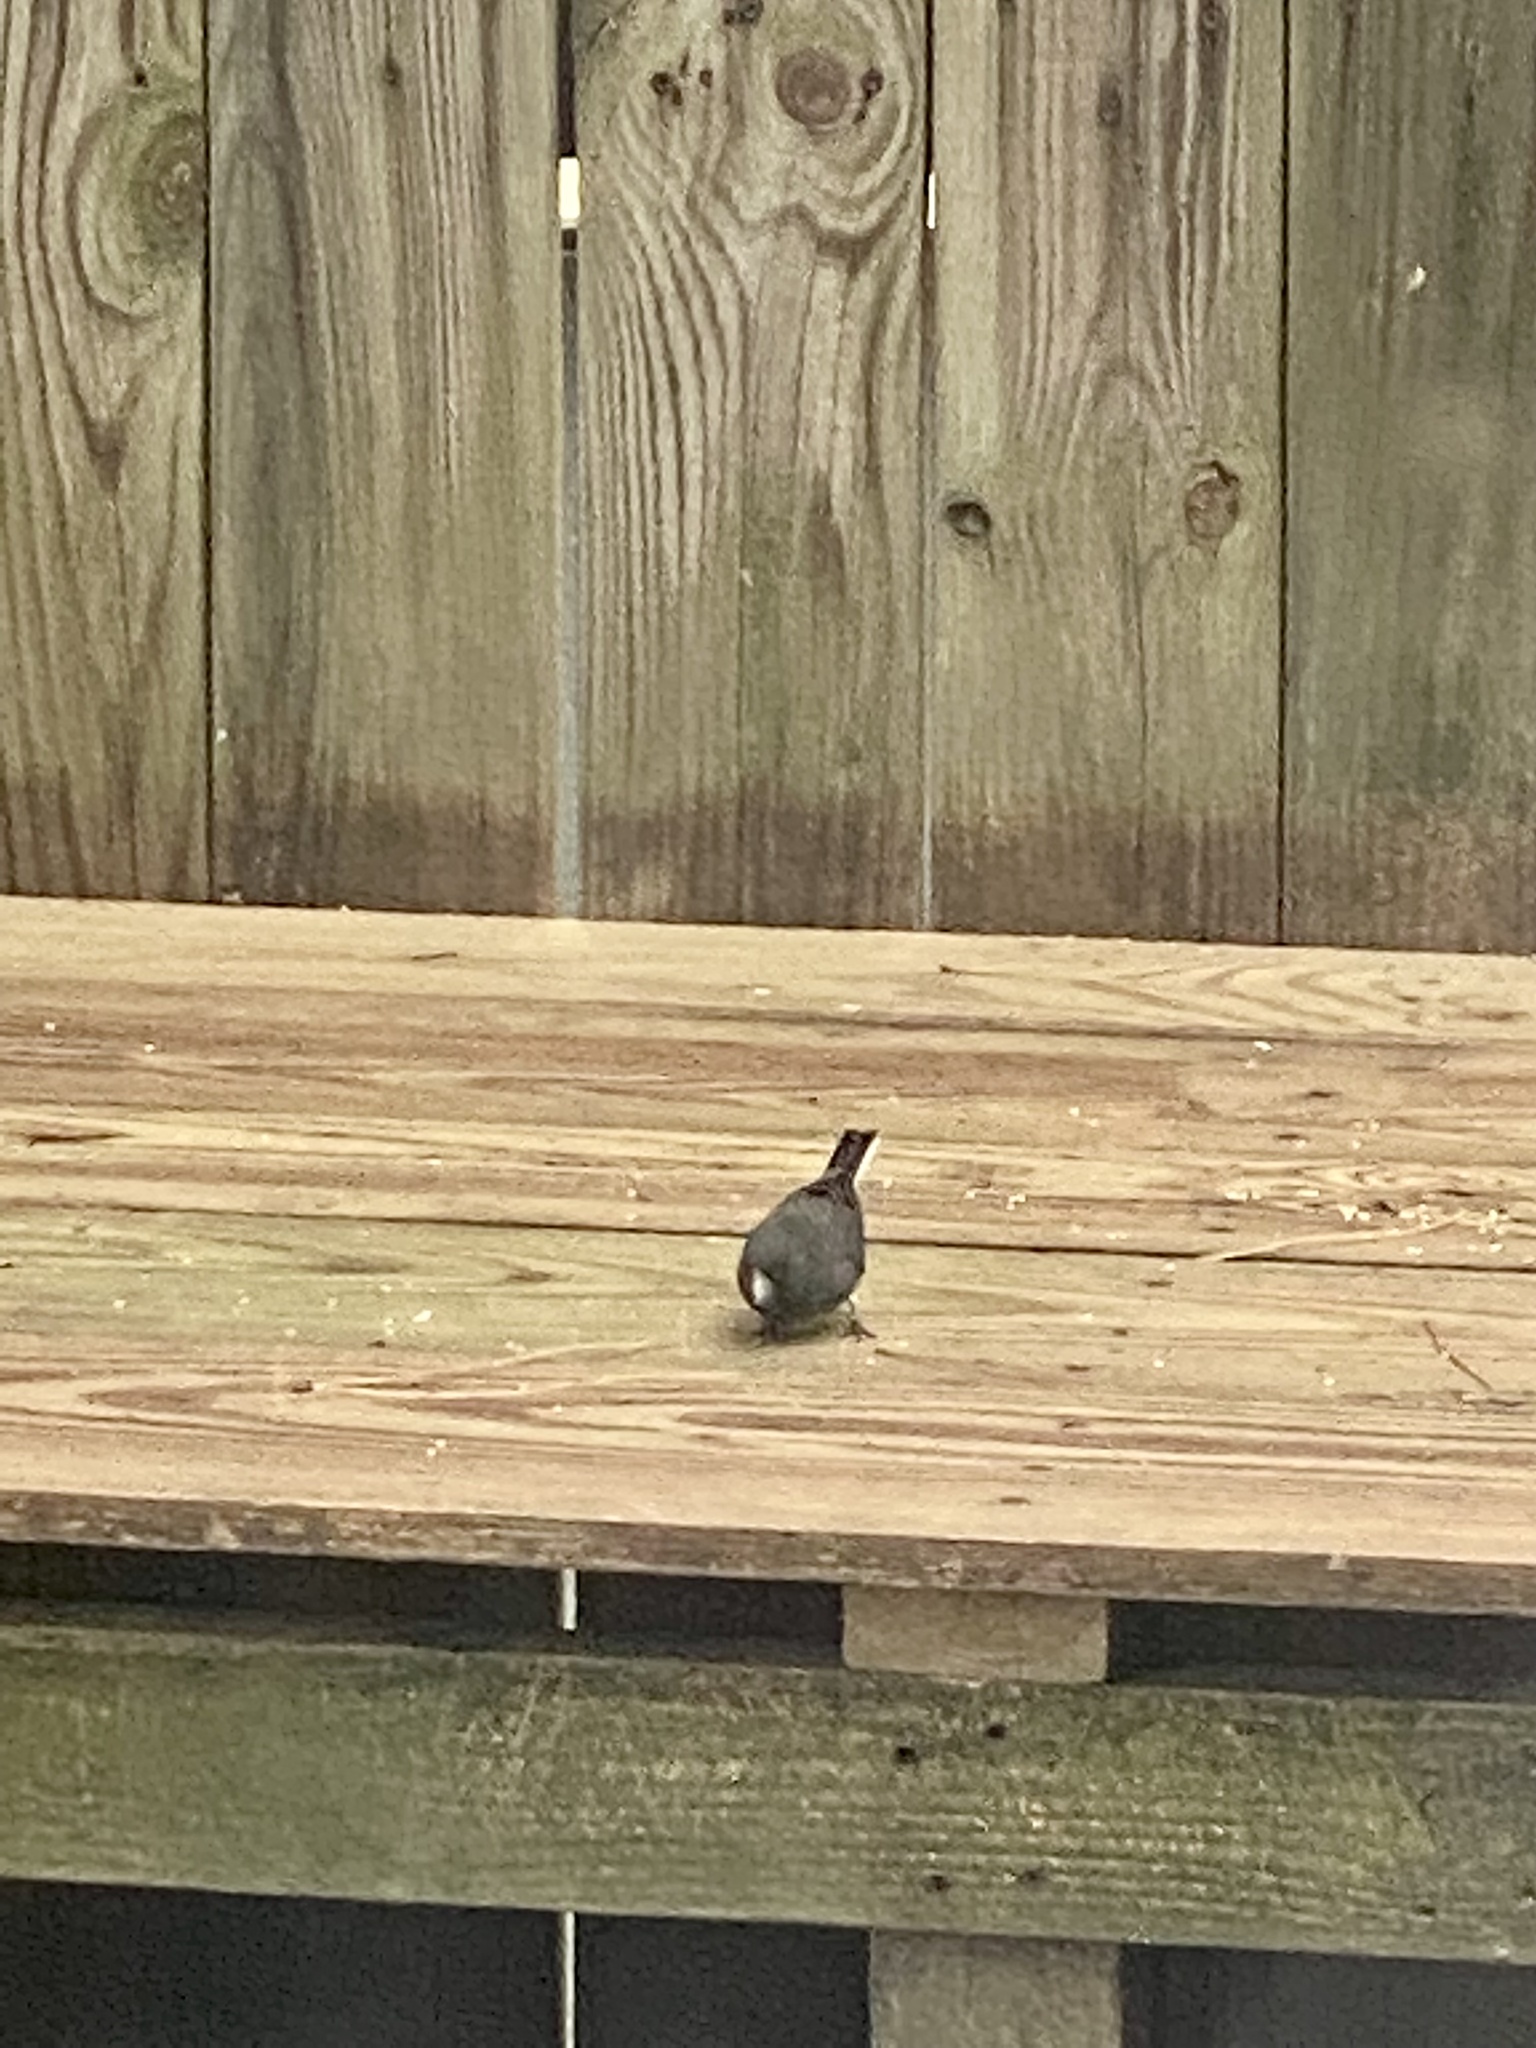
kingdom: Animalia
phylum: Chordata
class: Aves
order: Passeriformes
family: Passerellidae
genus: Junco
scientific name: Junco hyemalis
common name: Dark-eyed junco
